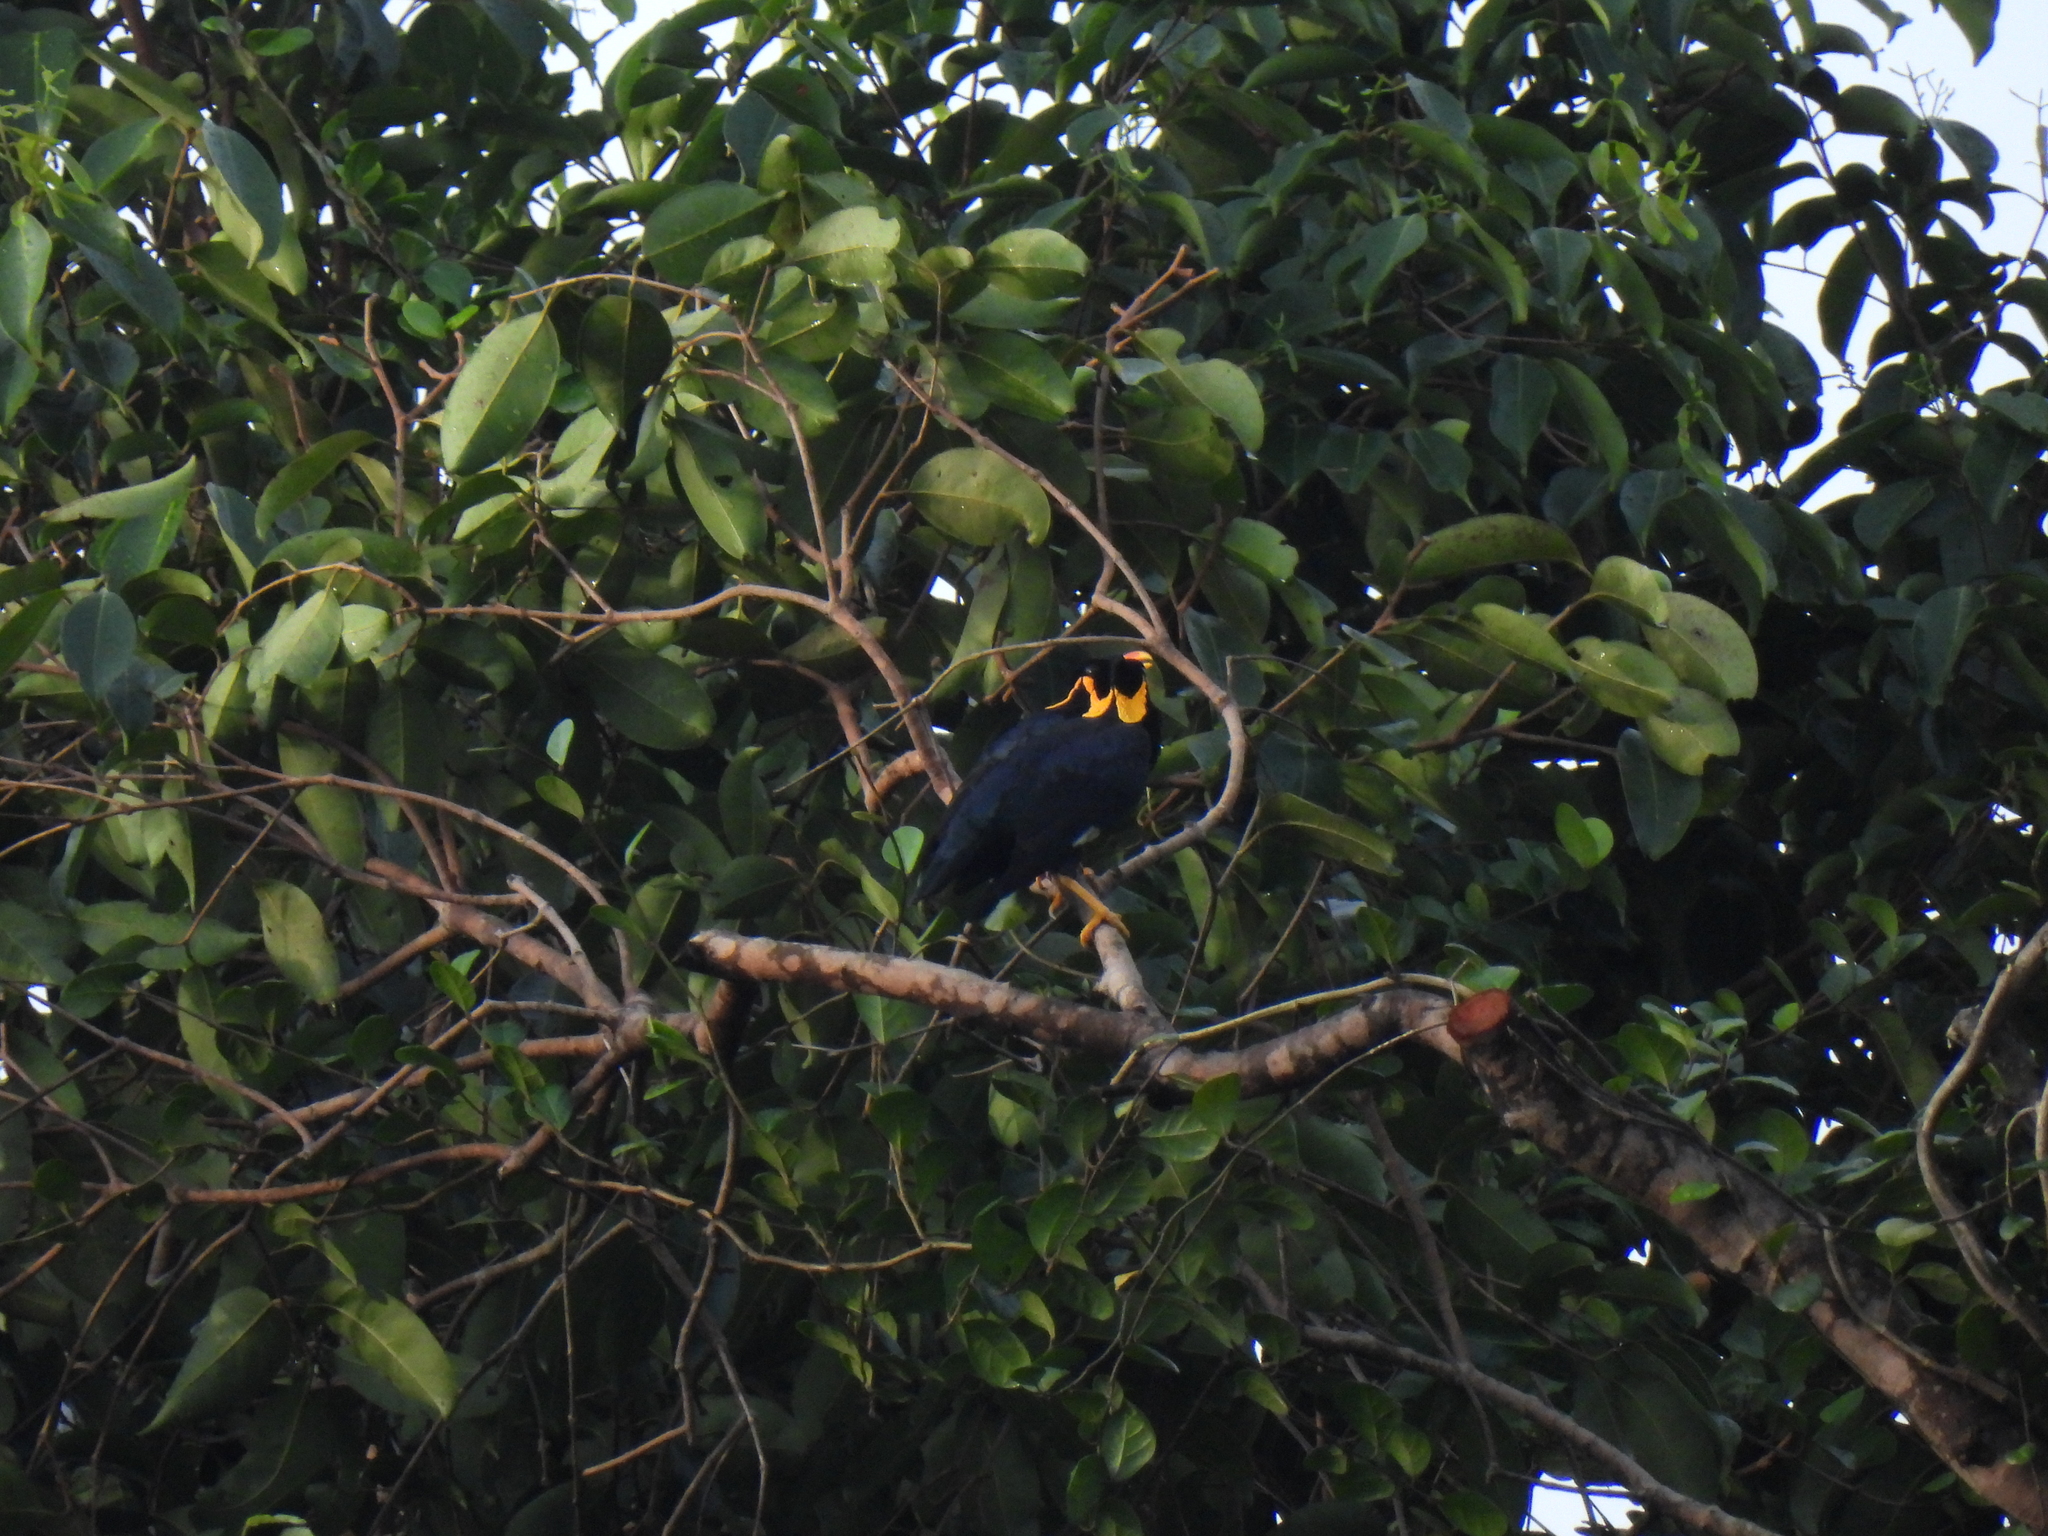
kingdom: Animalia
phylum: Chordata
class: Aves
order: Passeriformes
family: Sturnidae
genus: Gracula
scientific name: Gracula religiosa
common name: Common hill myna
